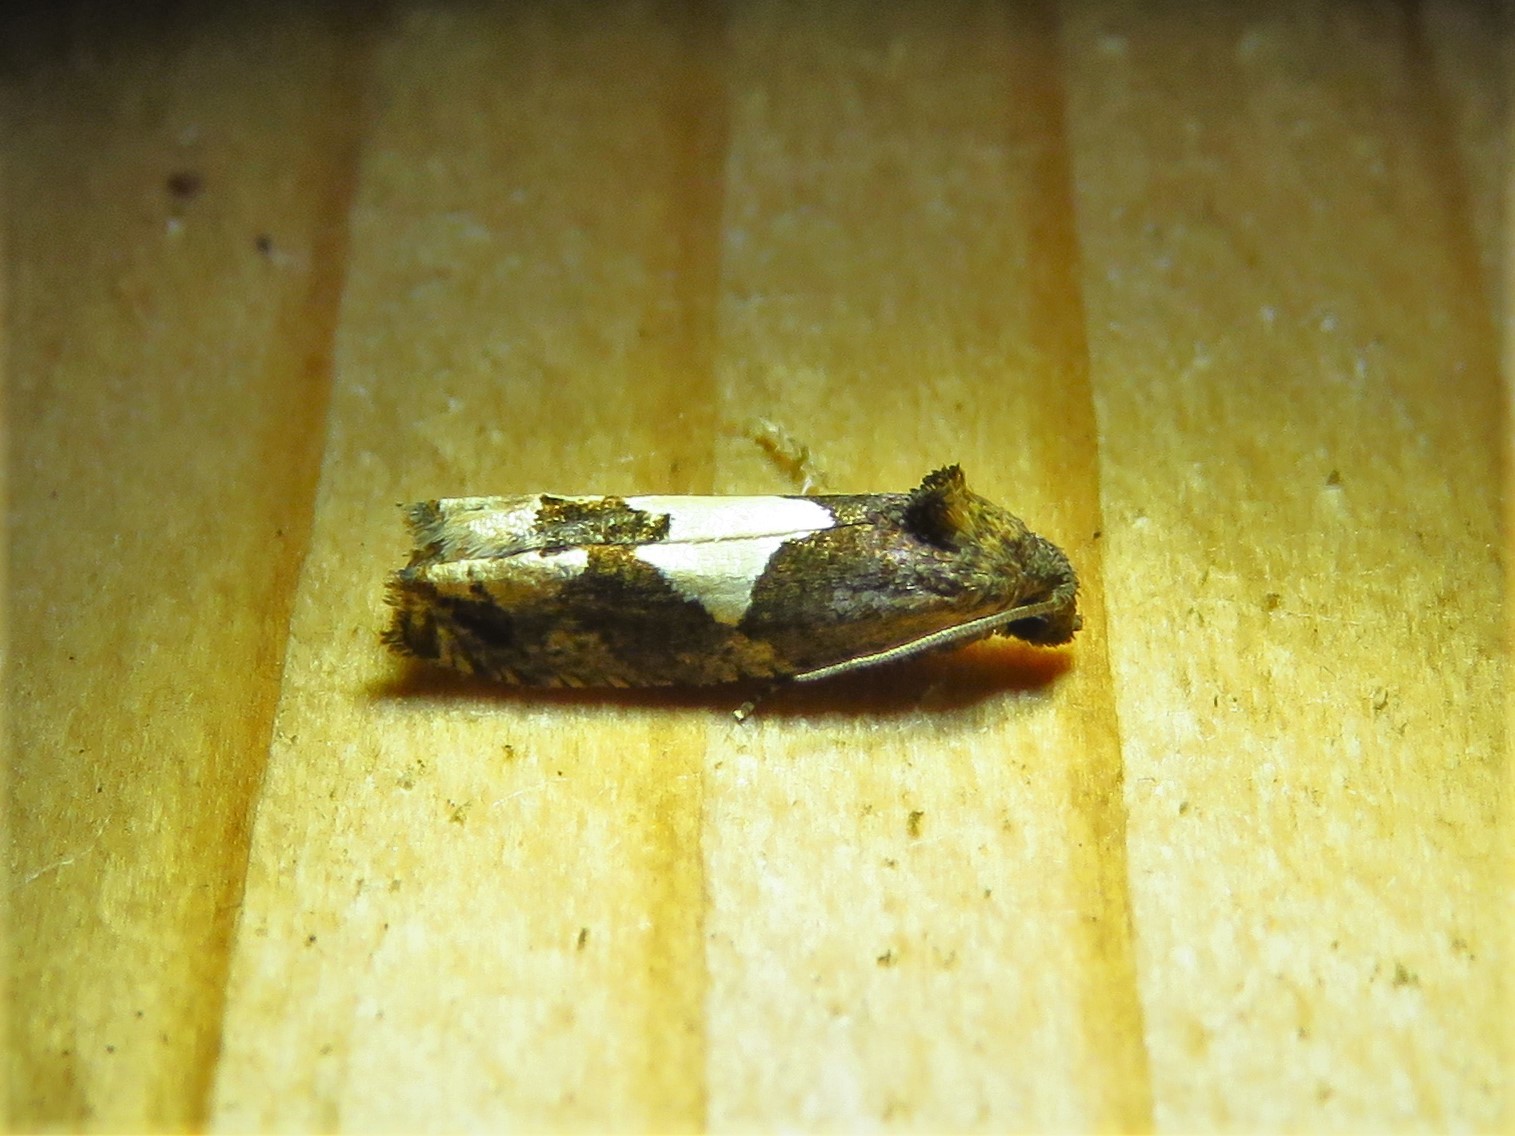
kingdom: Animalia
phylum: Arthropoda
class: Insecta
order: Lepidoptera
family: Tortricidae
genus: Epiblema
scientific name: Epiblema otiosana
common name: Bidens borer moth
